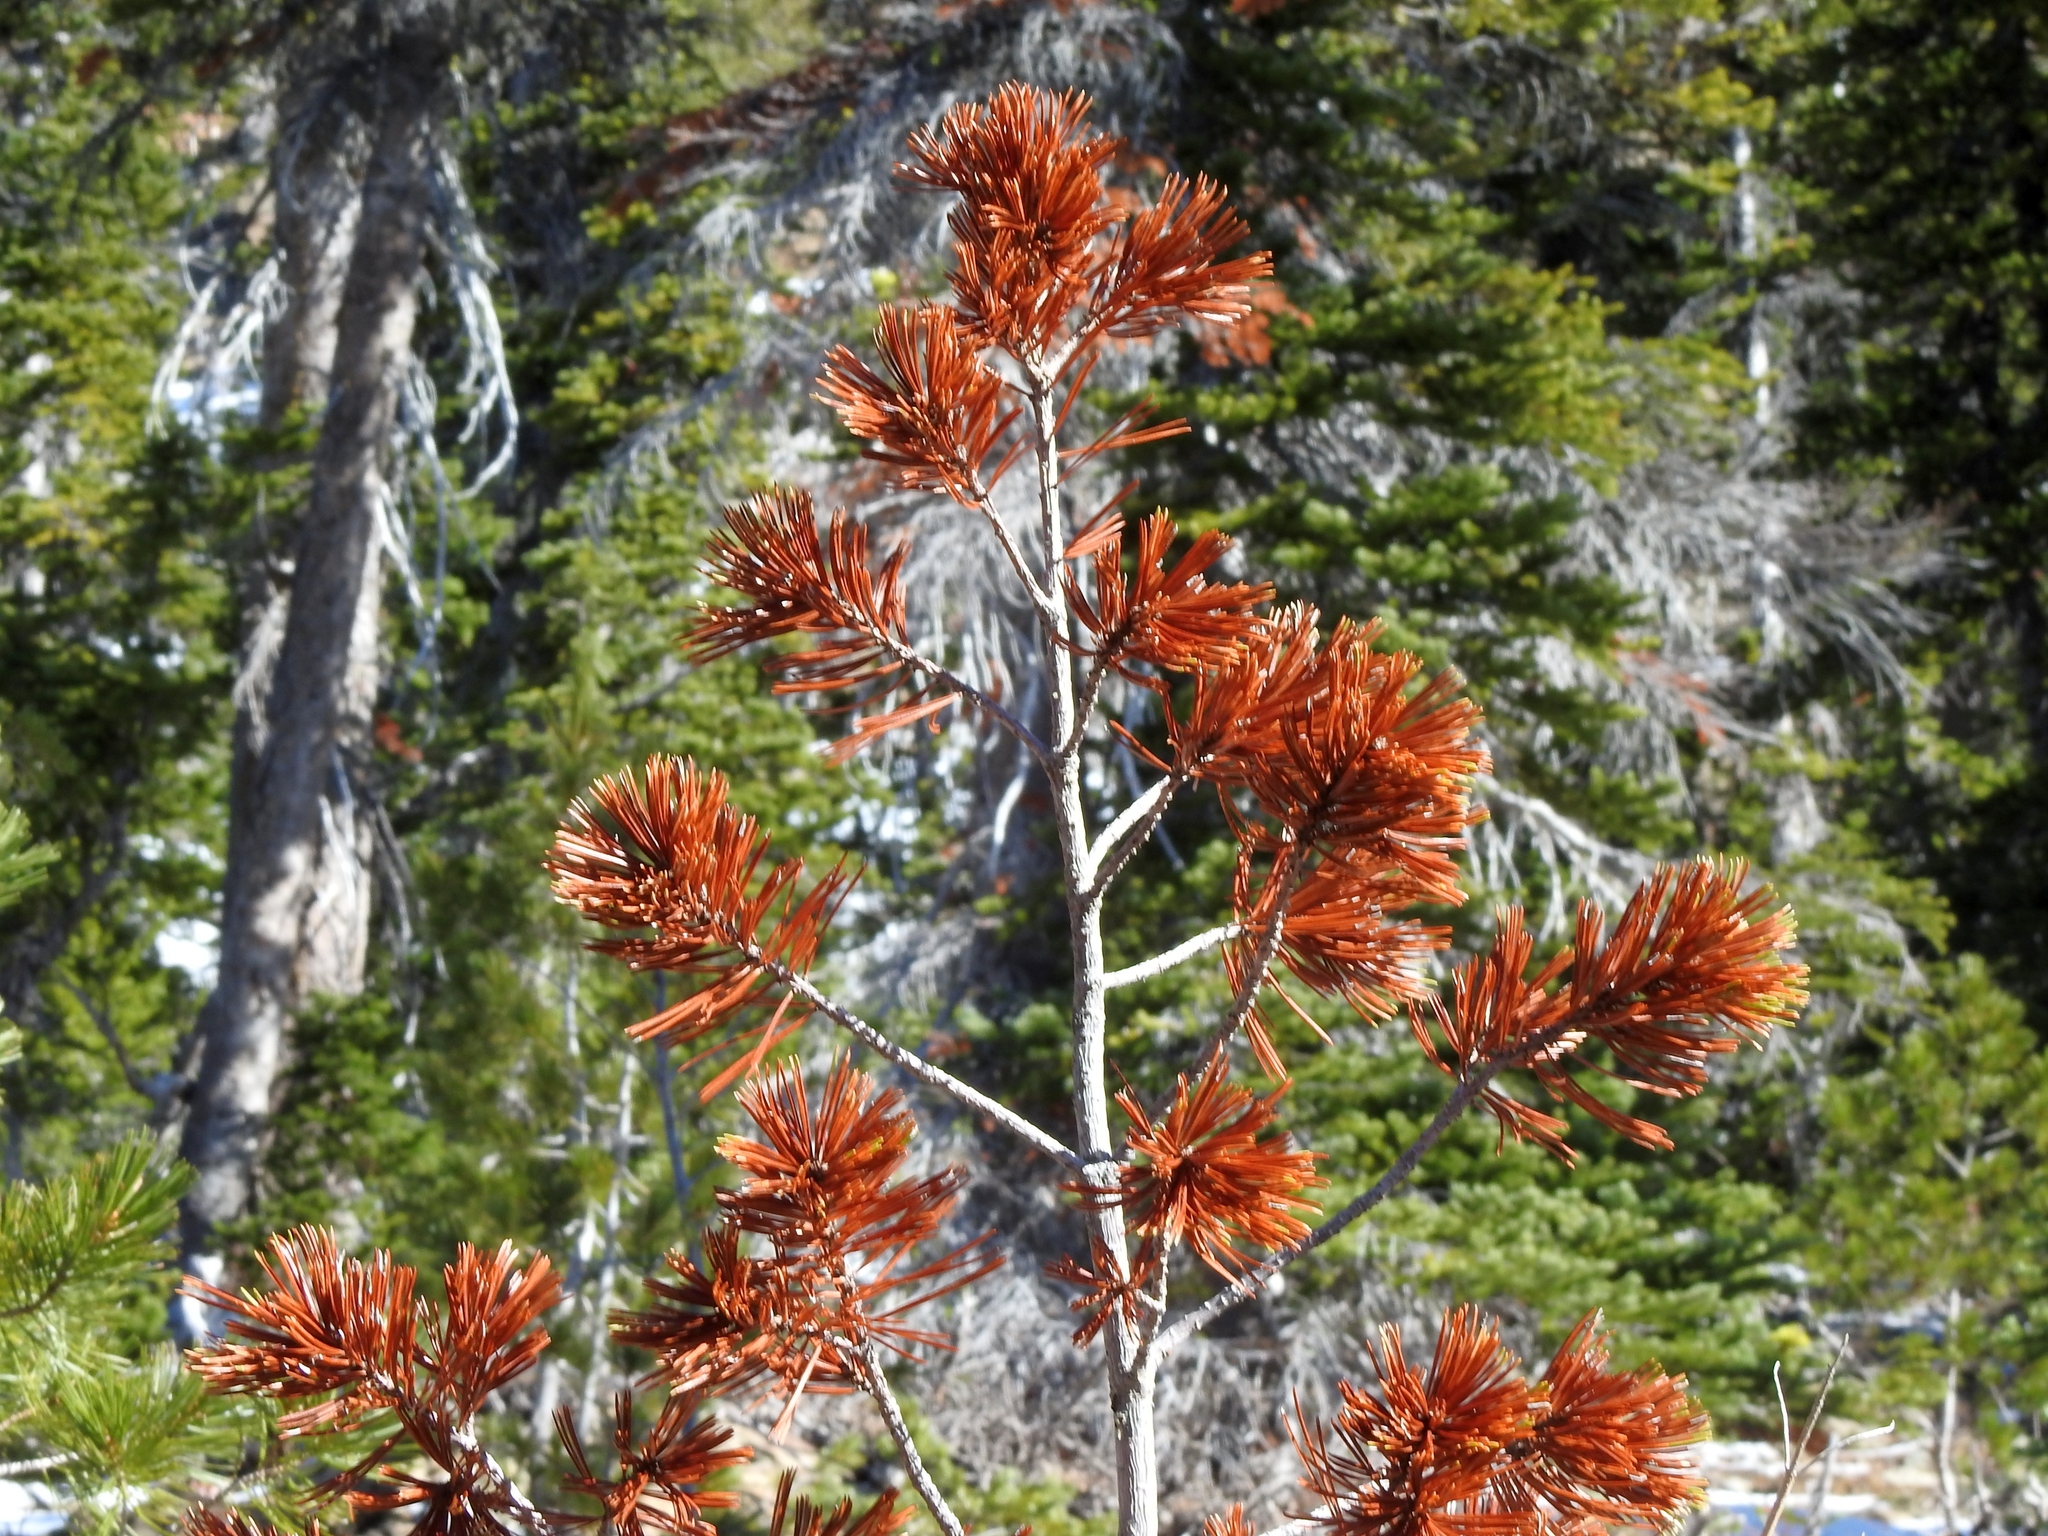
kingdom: Plantae
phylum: Tracheophyta
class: Pinopsida
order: Pinales
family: Pinaceae
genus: Pinus
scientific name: Pinus albicaulis
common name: Whitebark pine
